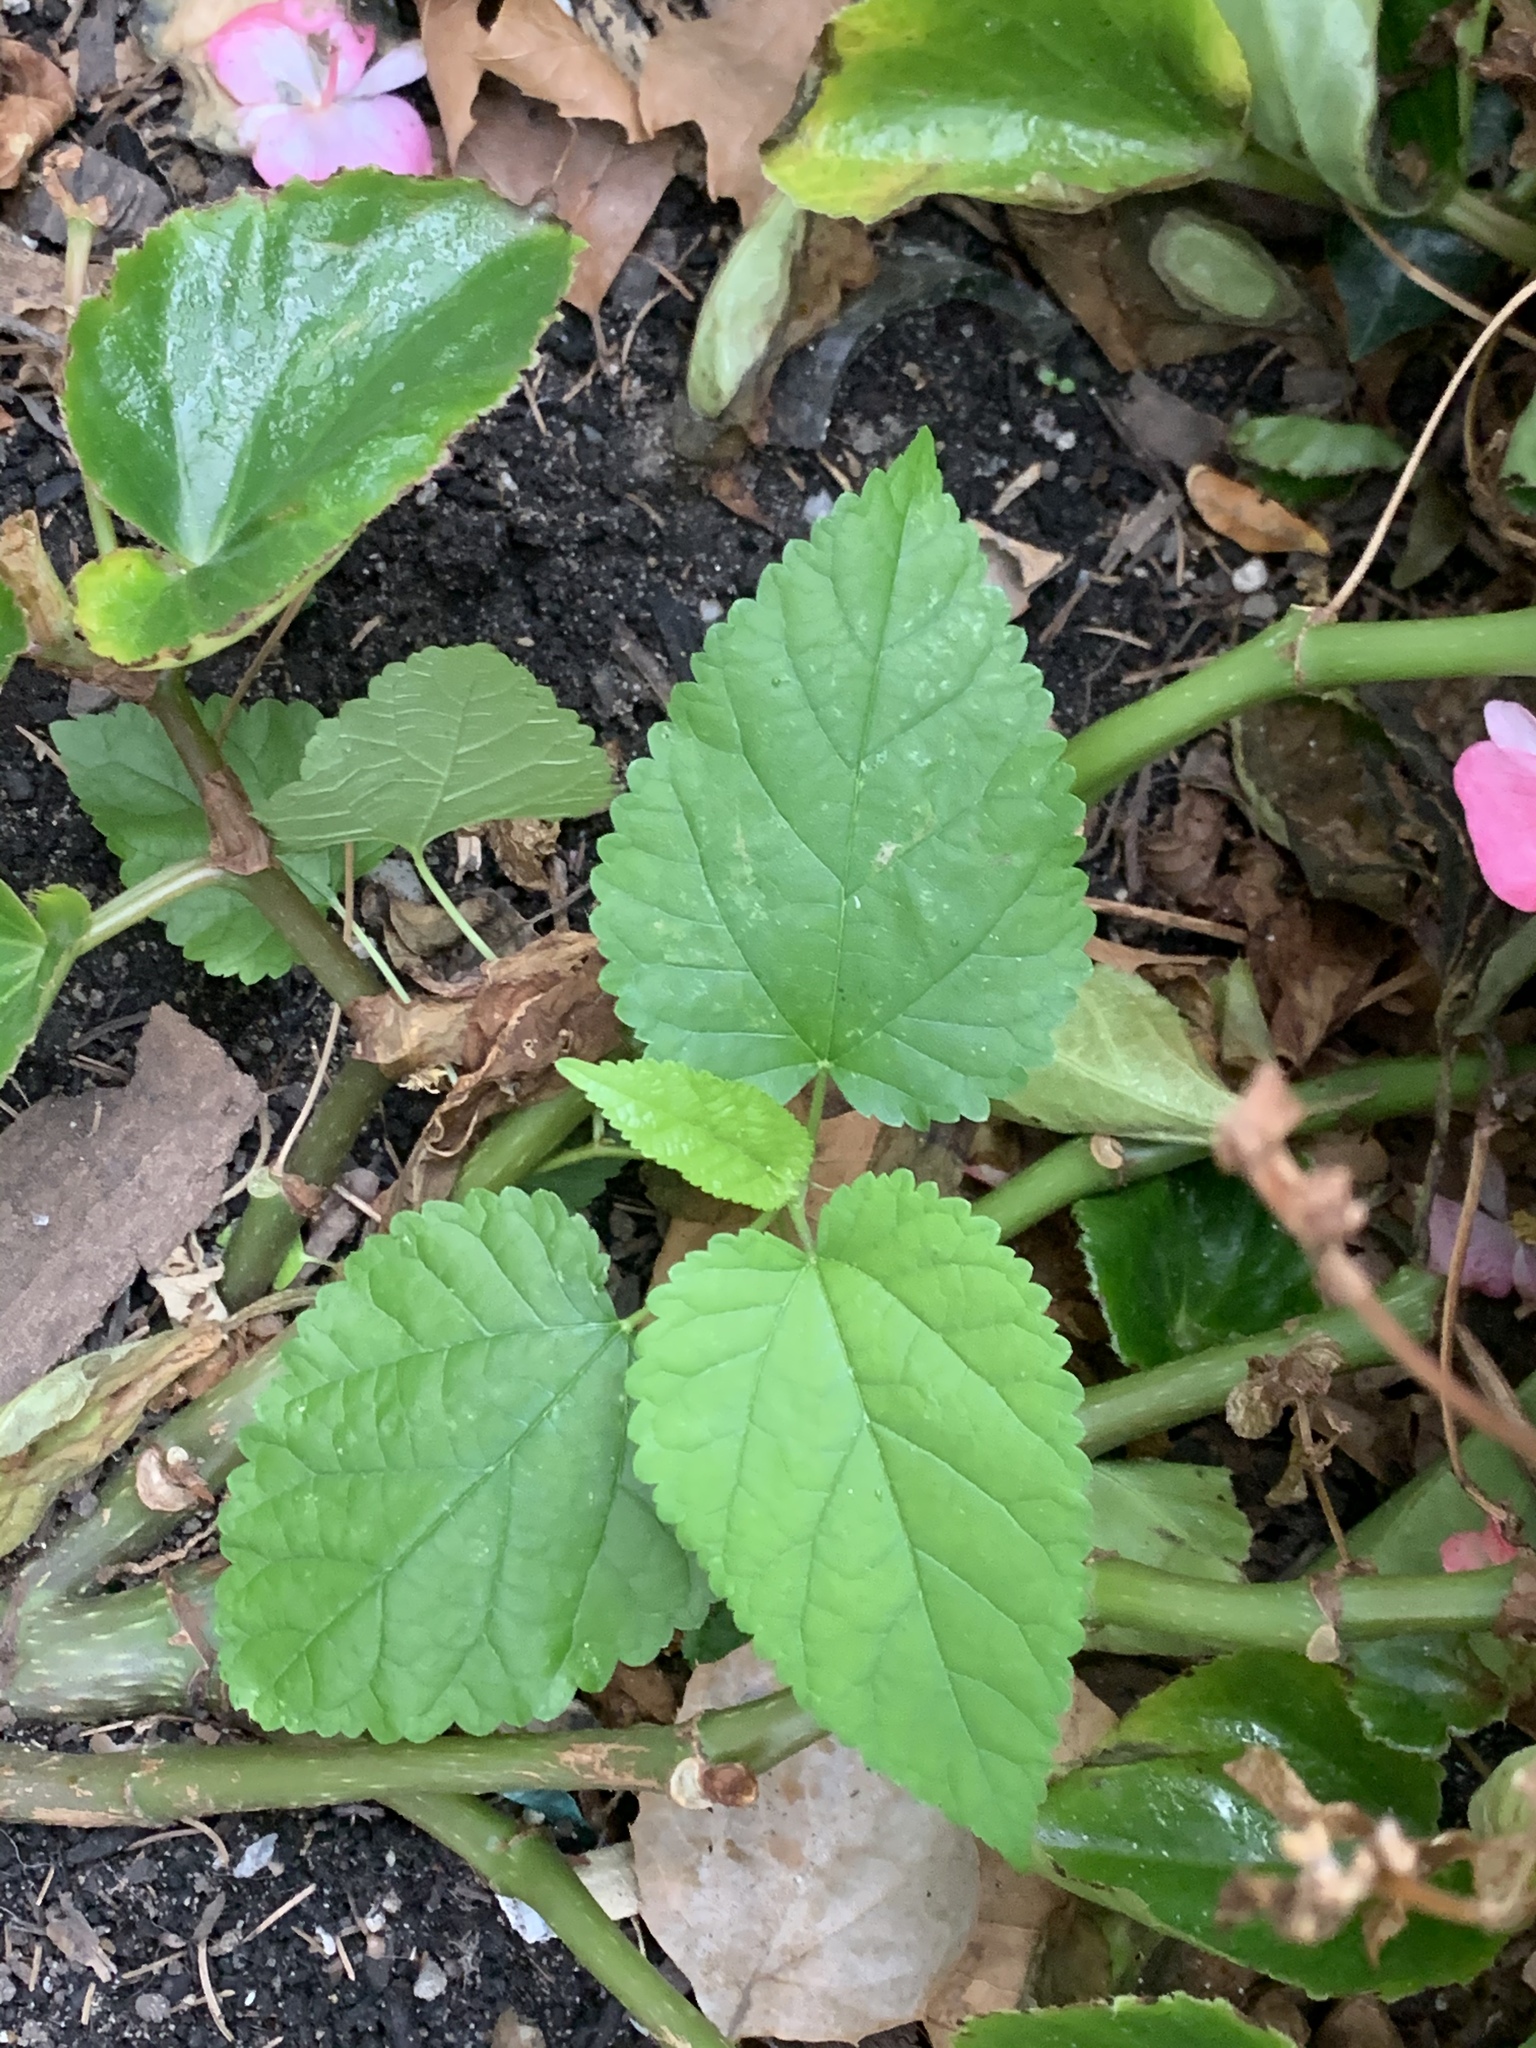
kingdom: Plantae
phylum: Tracheophyta
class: Magnoliopsida
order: Rosales
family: Moraceae
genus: Fatoua
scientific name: Fatoua villosa
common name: Hairy crabweed
